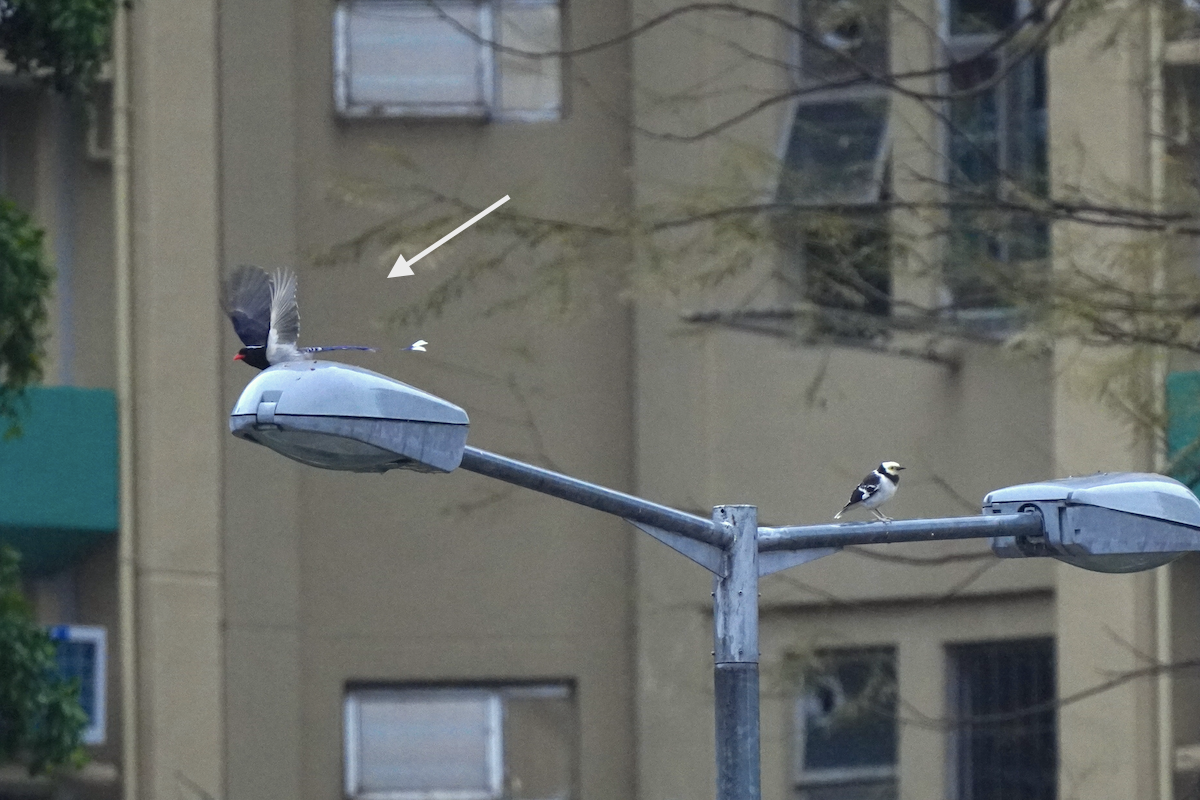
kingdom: Animalia
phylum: Chordata
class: Aves
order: Passeriformes
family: Corvidae
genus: Urocissa
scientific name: Urocissa erythroryncha
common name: Red-billed blue magpie
